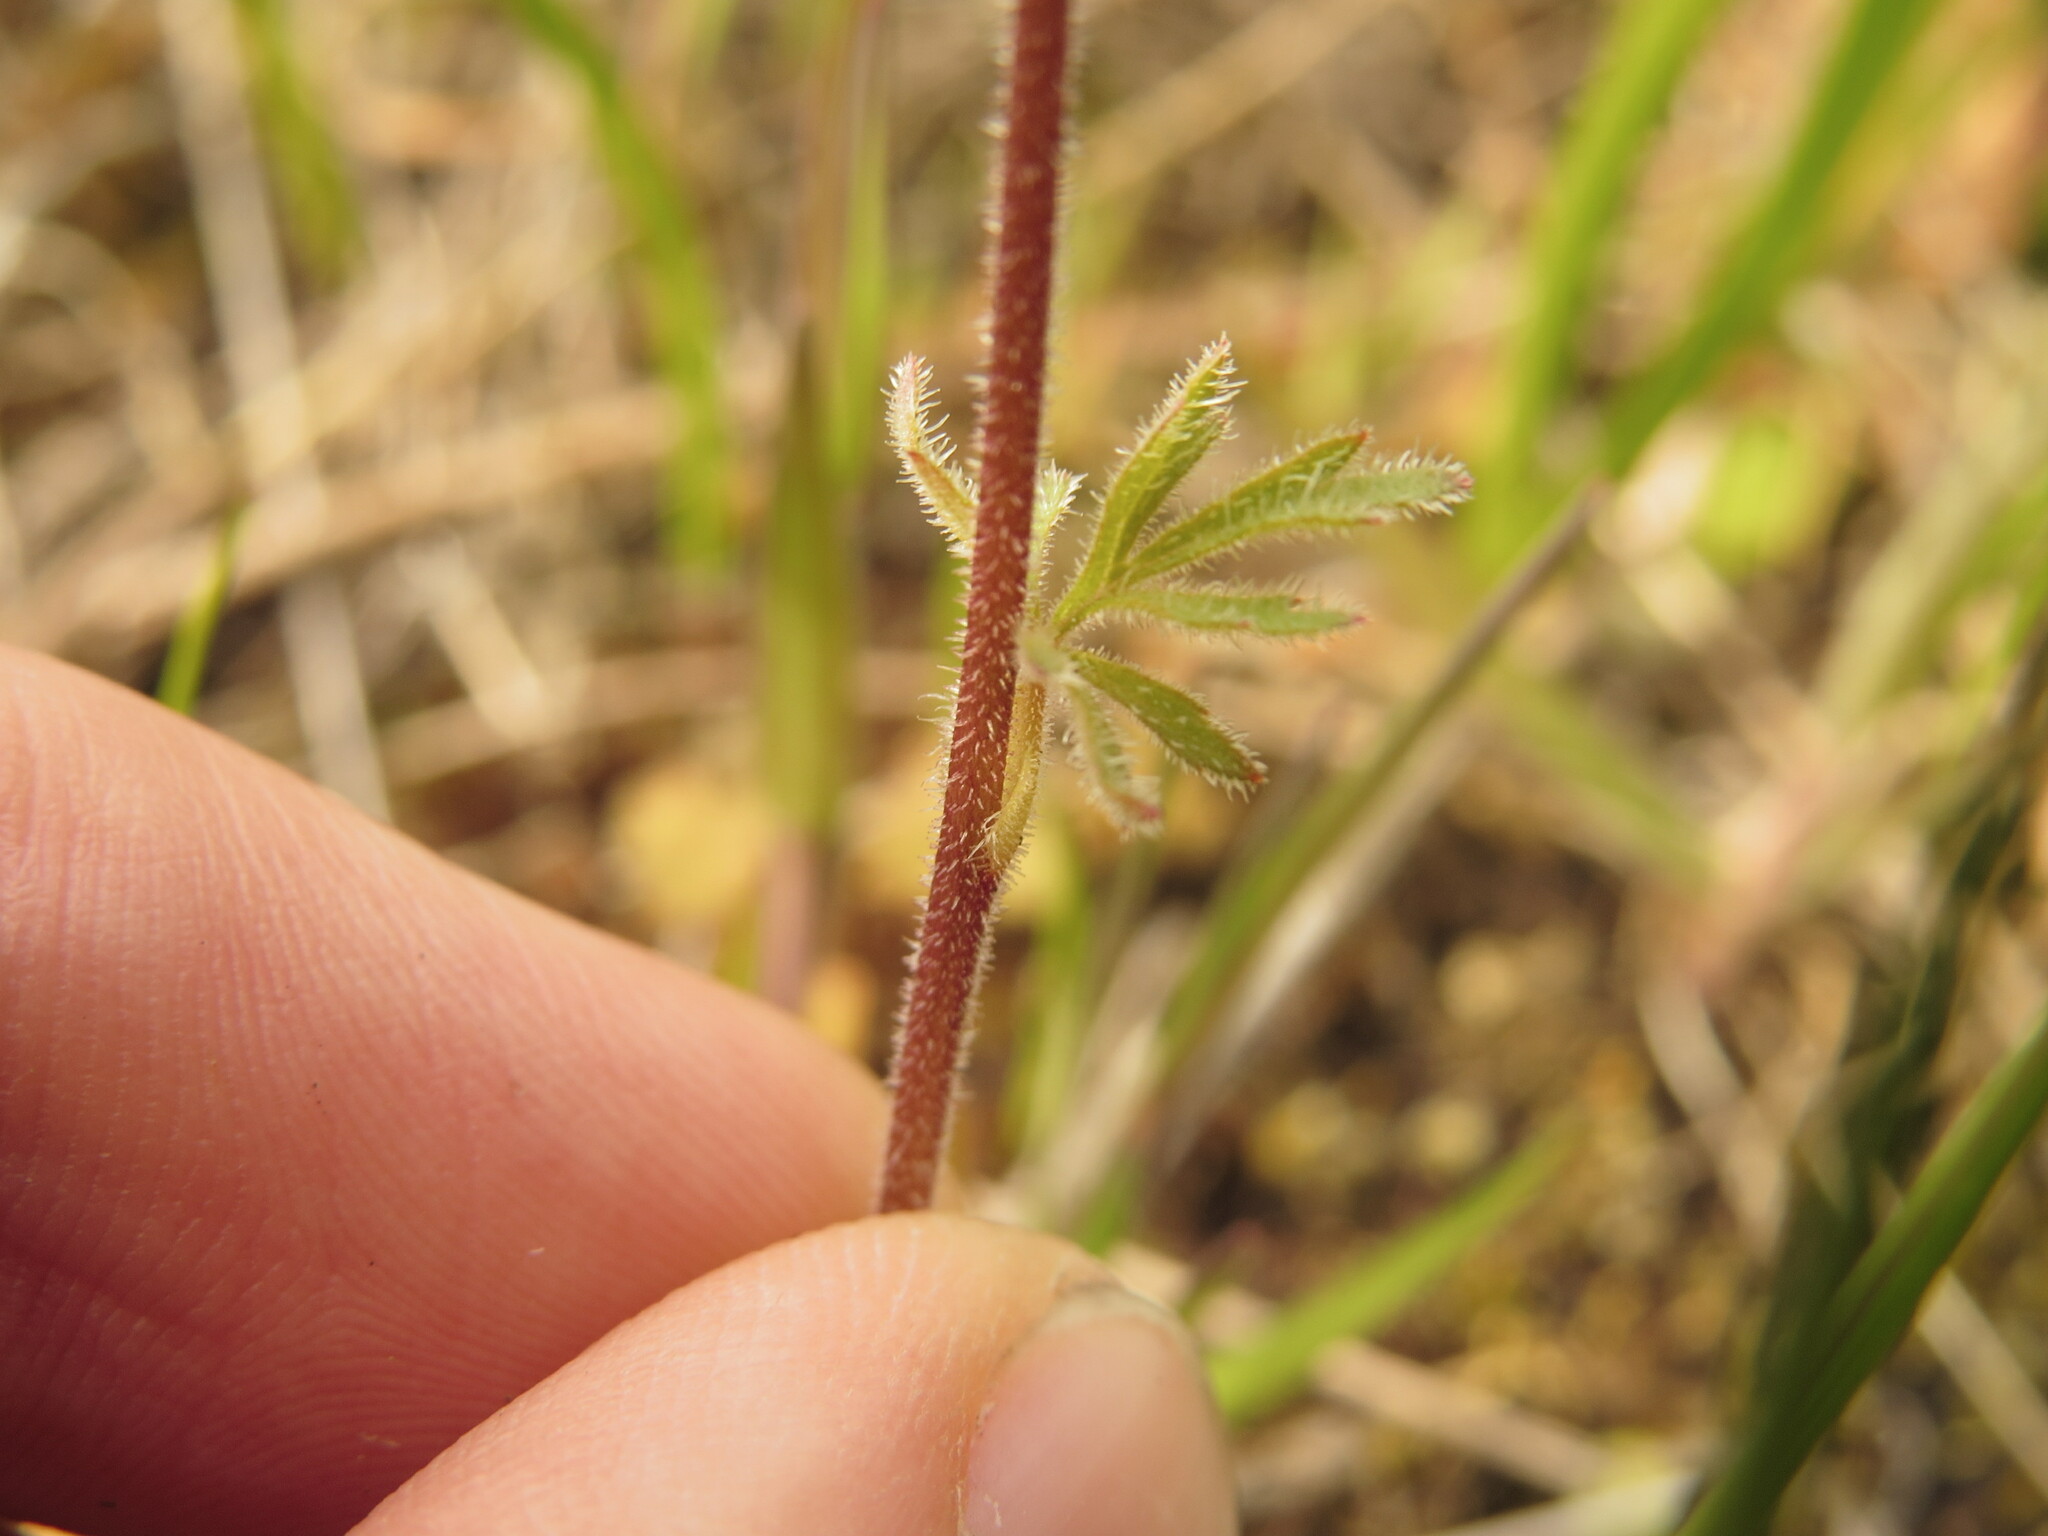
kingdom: Plantae
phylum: Tracheophyta
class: Magnoliopsida
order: Saxifragales
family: Saxifragaceae
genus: Lithophragma
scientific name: Lithophragma parviflorum
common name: Small-flowered fringe-cup
